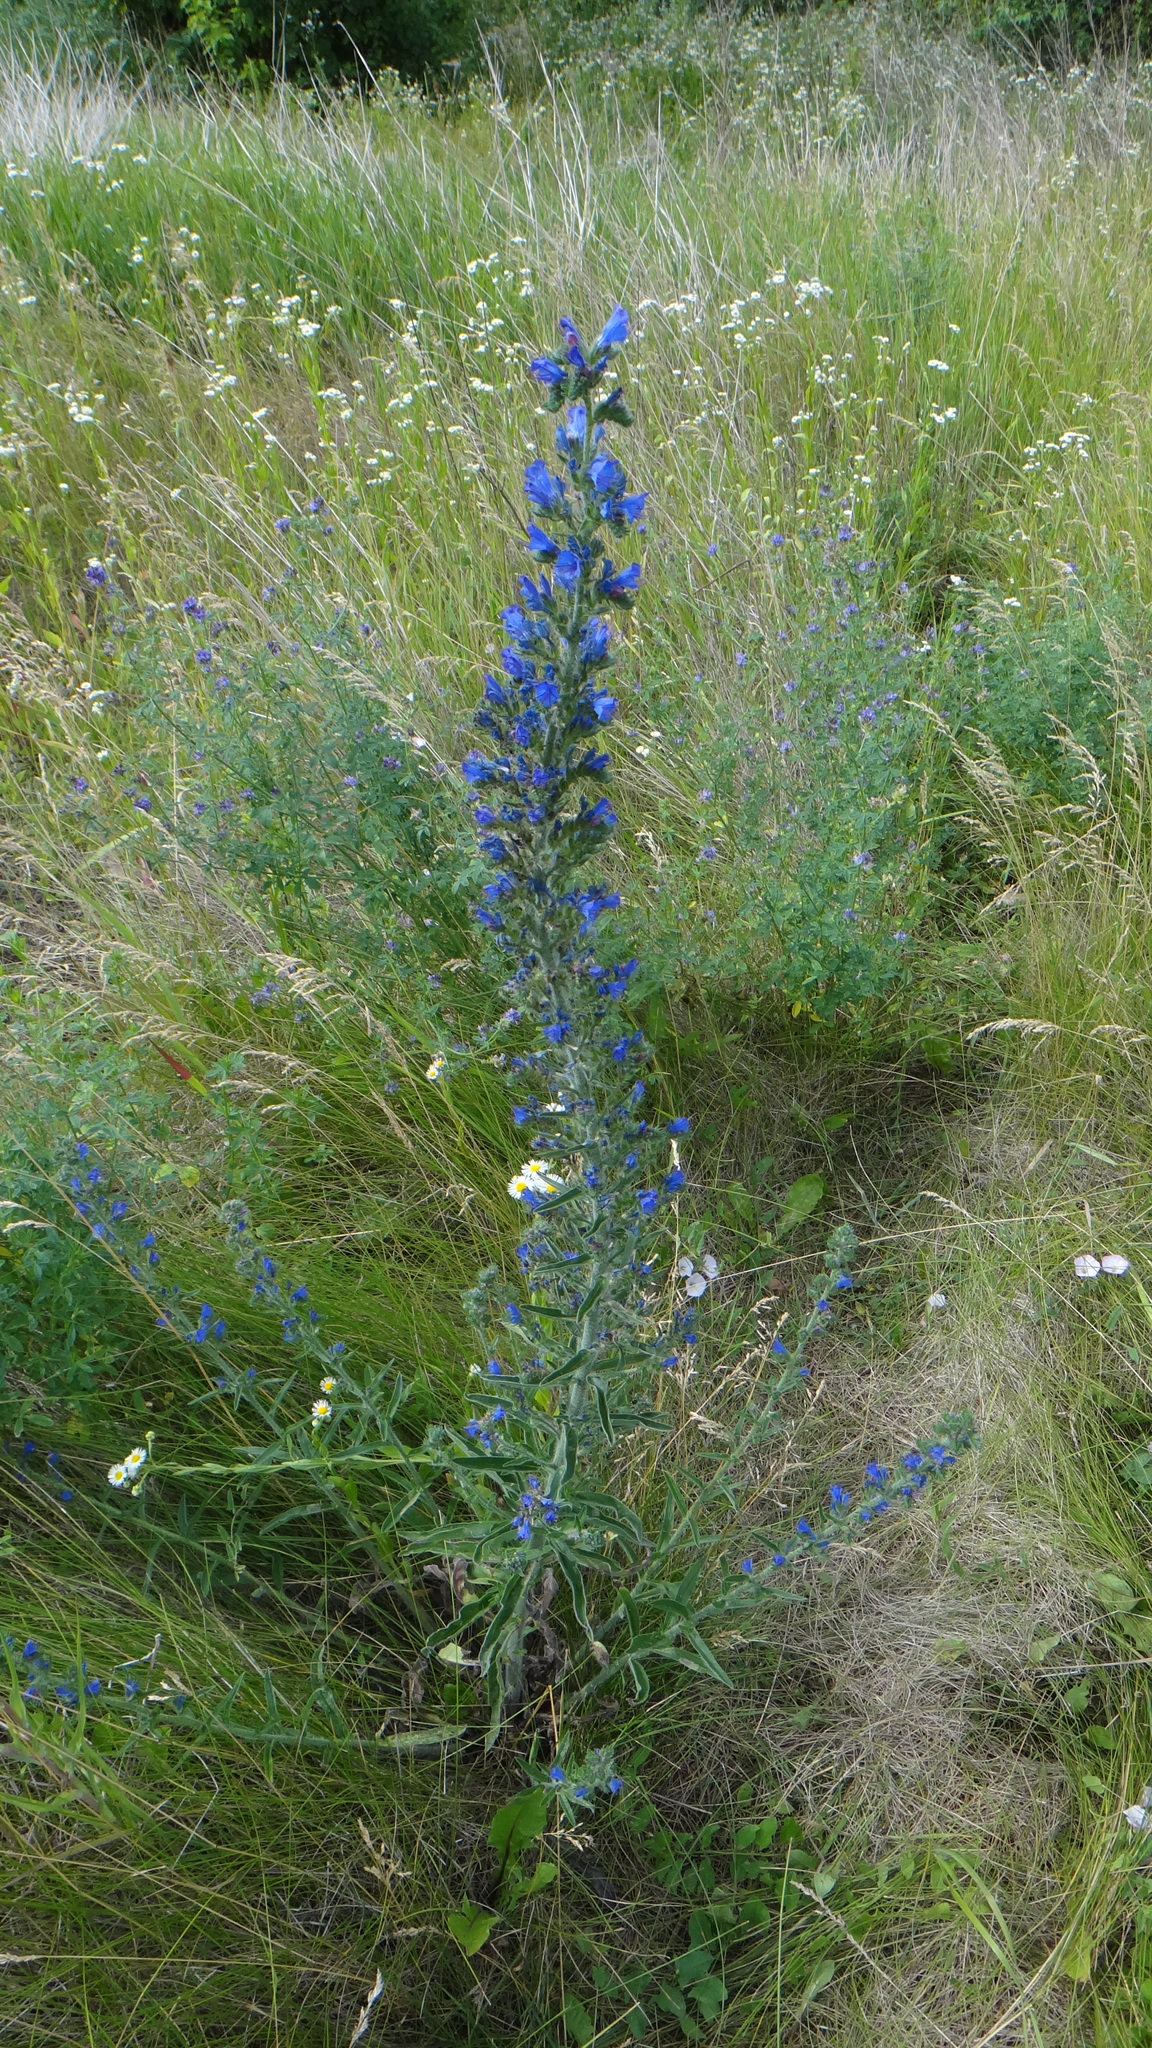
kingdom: Plantae
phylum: Tracheophyta
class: Magnoliopsida
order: Boraginales
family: Boraginaceae
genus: Echium
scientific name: Echium vulgare
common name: Common viper's bugloss
